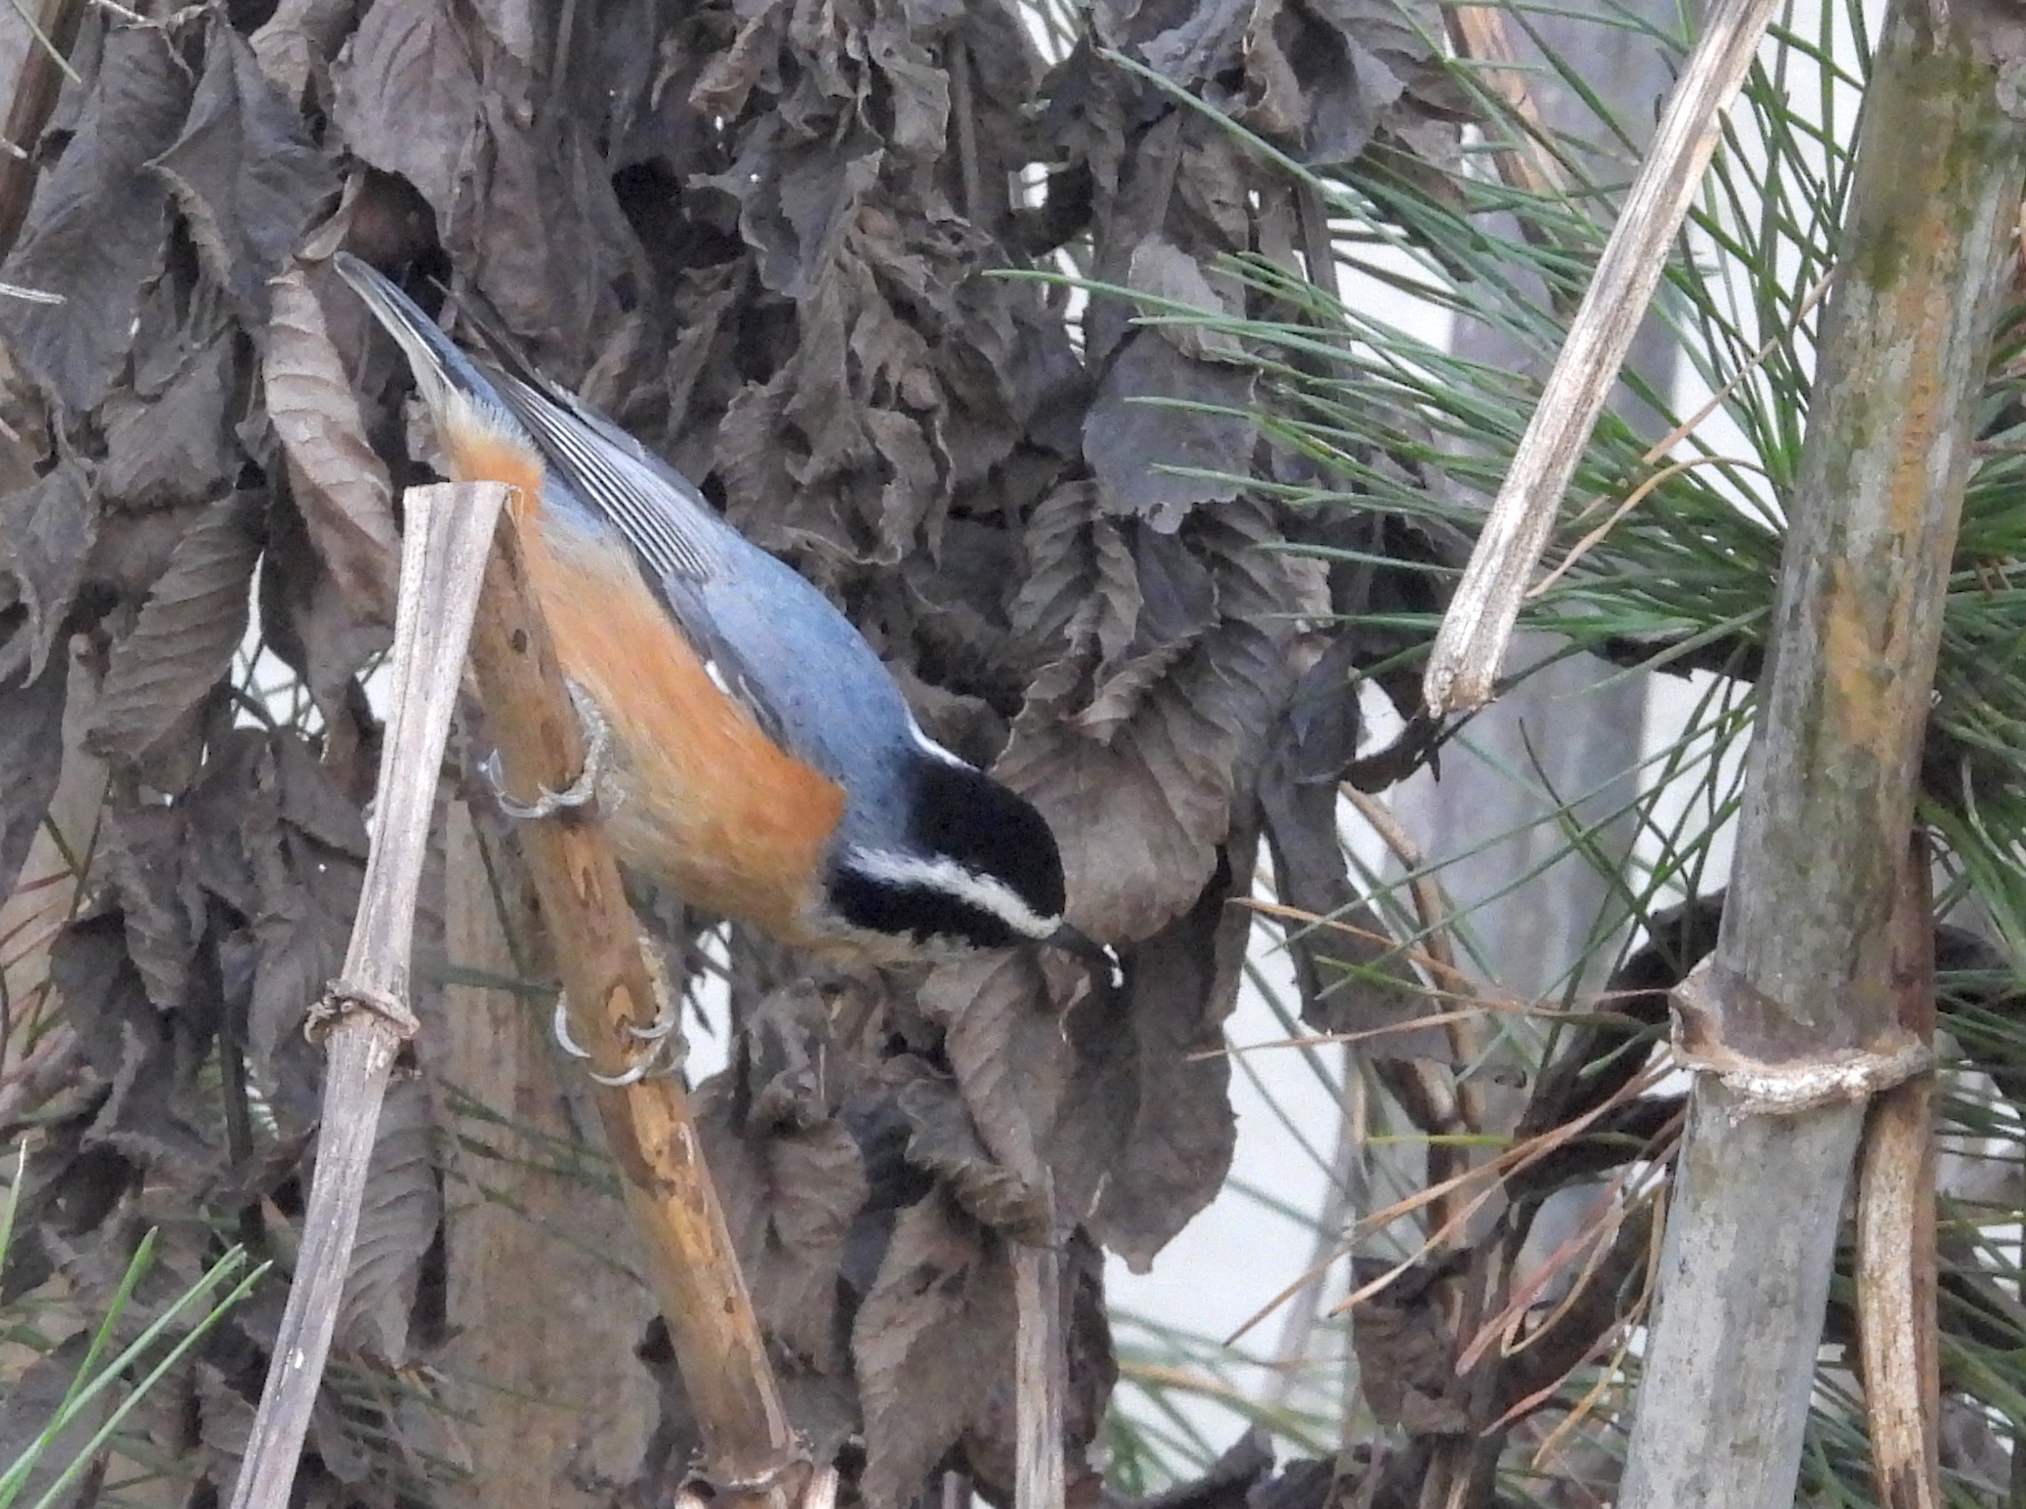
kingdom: Animalia
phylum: Chordata
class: Aves
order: Passeriformes
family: Sittidae
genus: Sitta
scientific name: Sitta canadensis
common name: Red-breasted nuthatch
